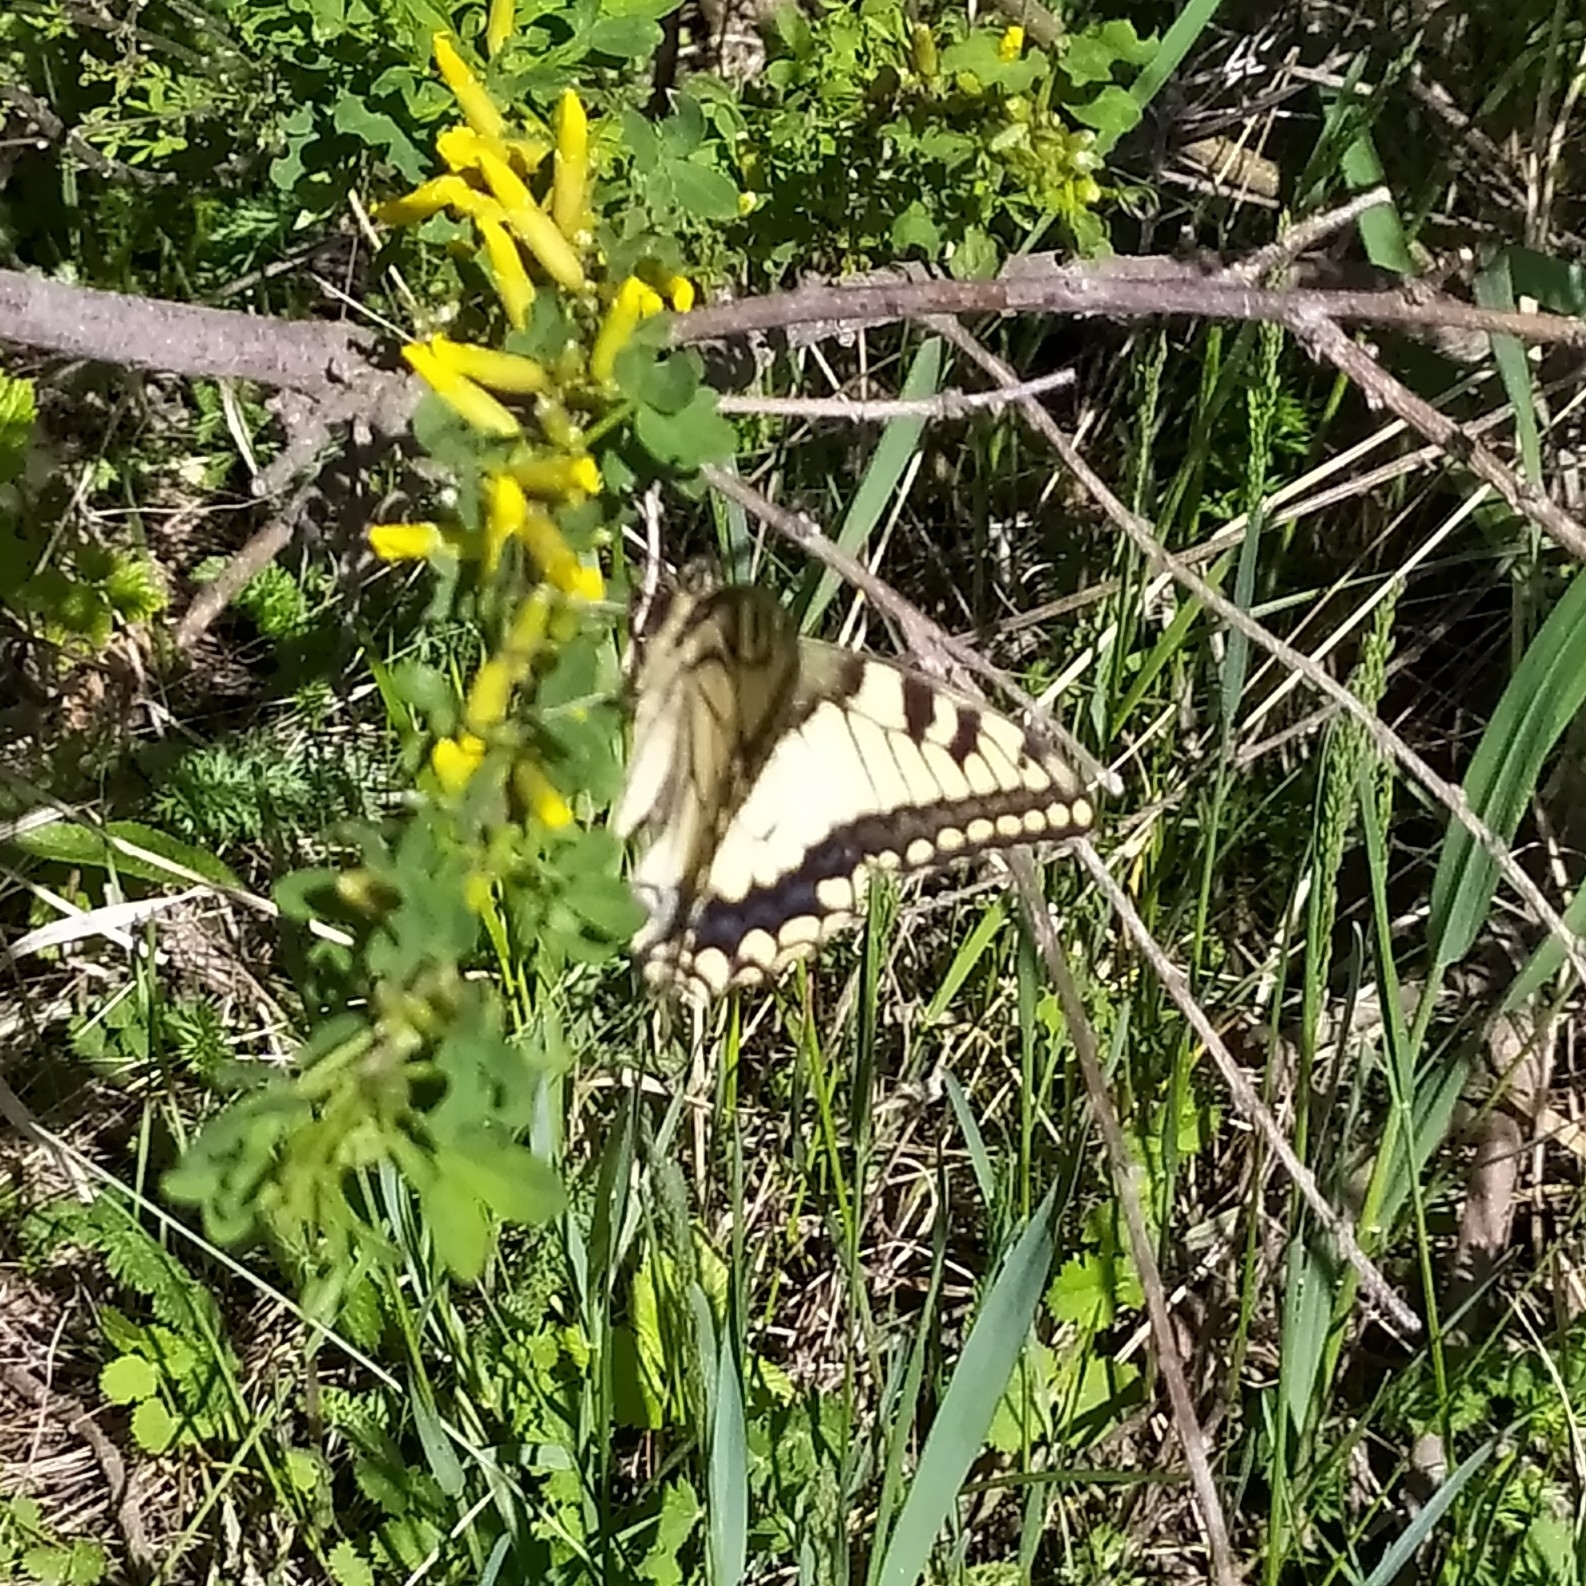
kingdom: Animalia
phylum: Arthropoda
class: Insecta
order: Lepidoptera
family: Papilionidae
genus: Papilio
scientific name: Papilio machaon
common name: Swallowtail
